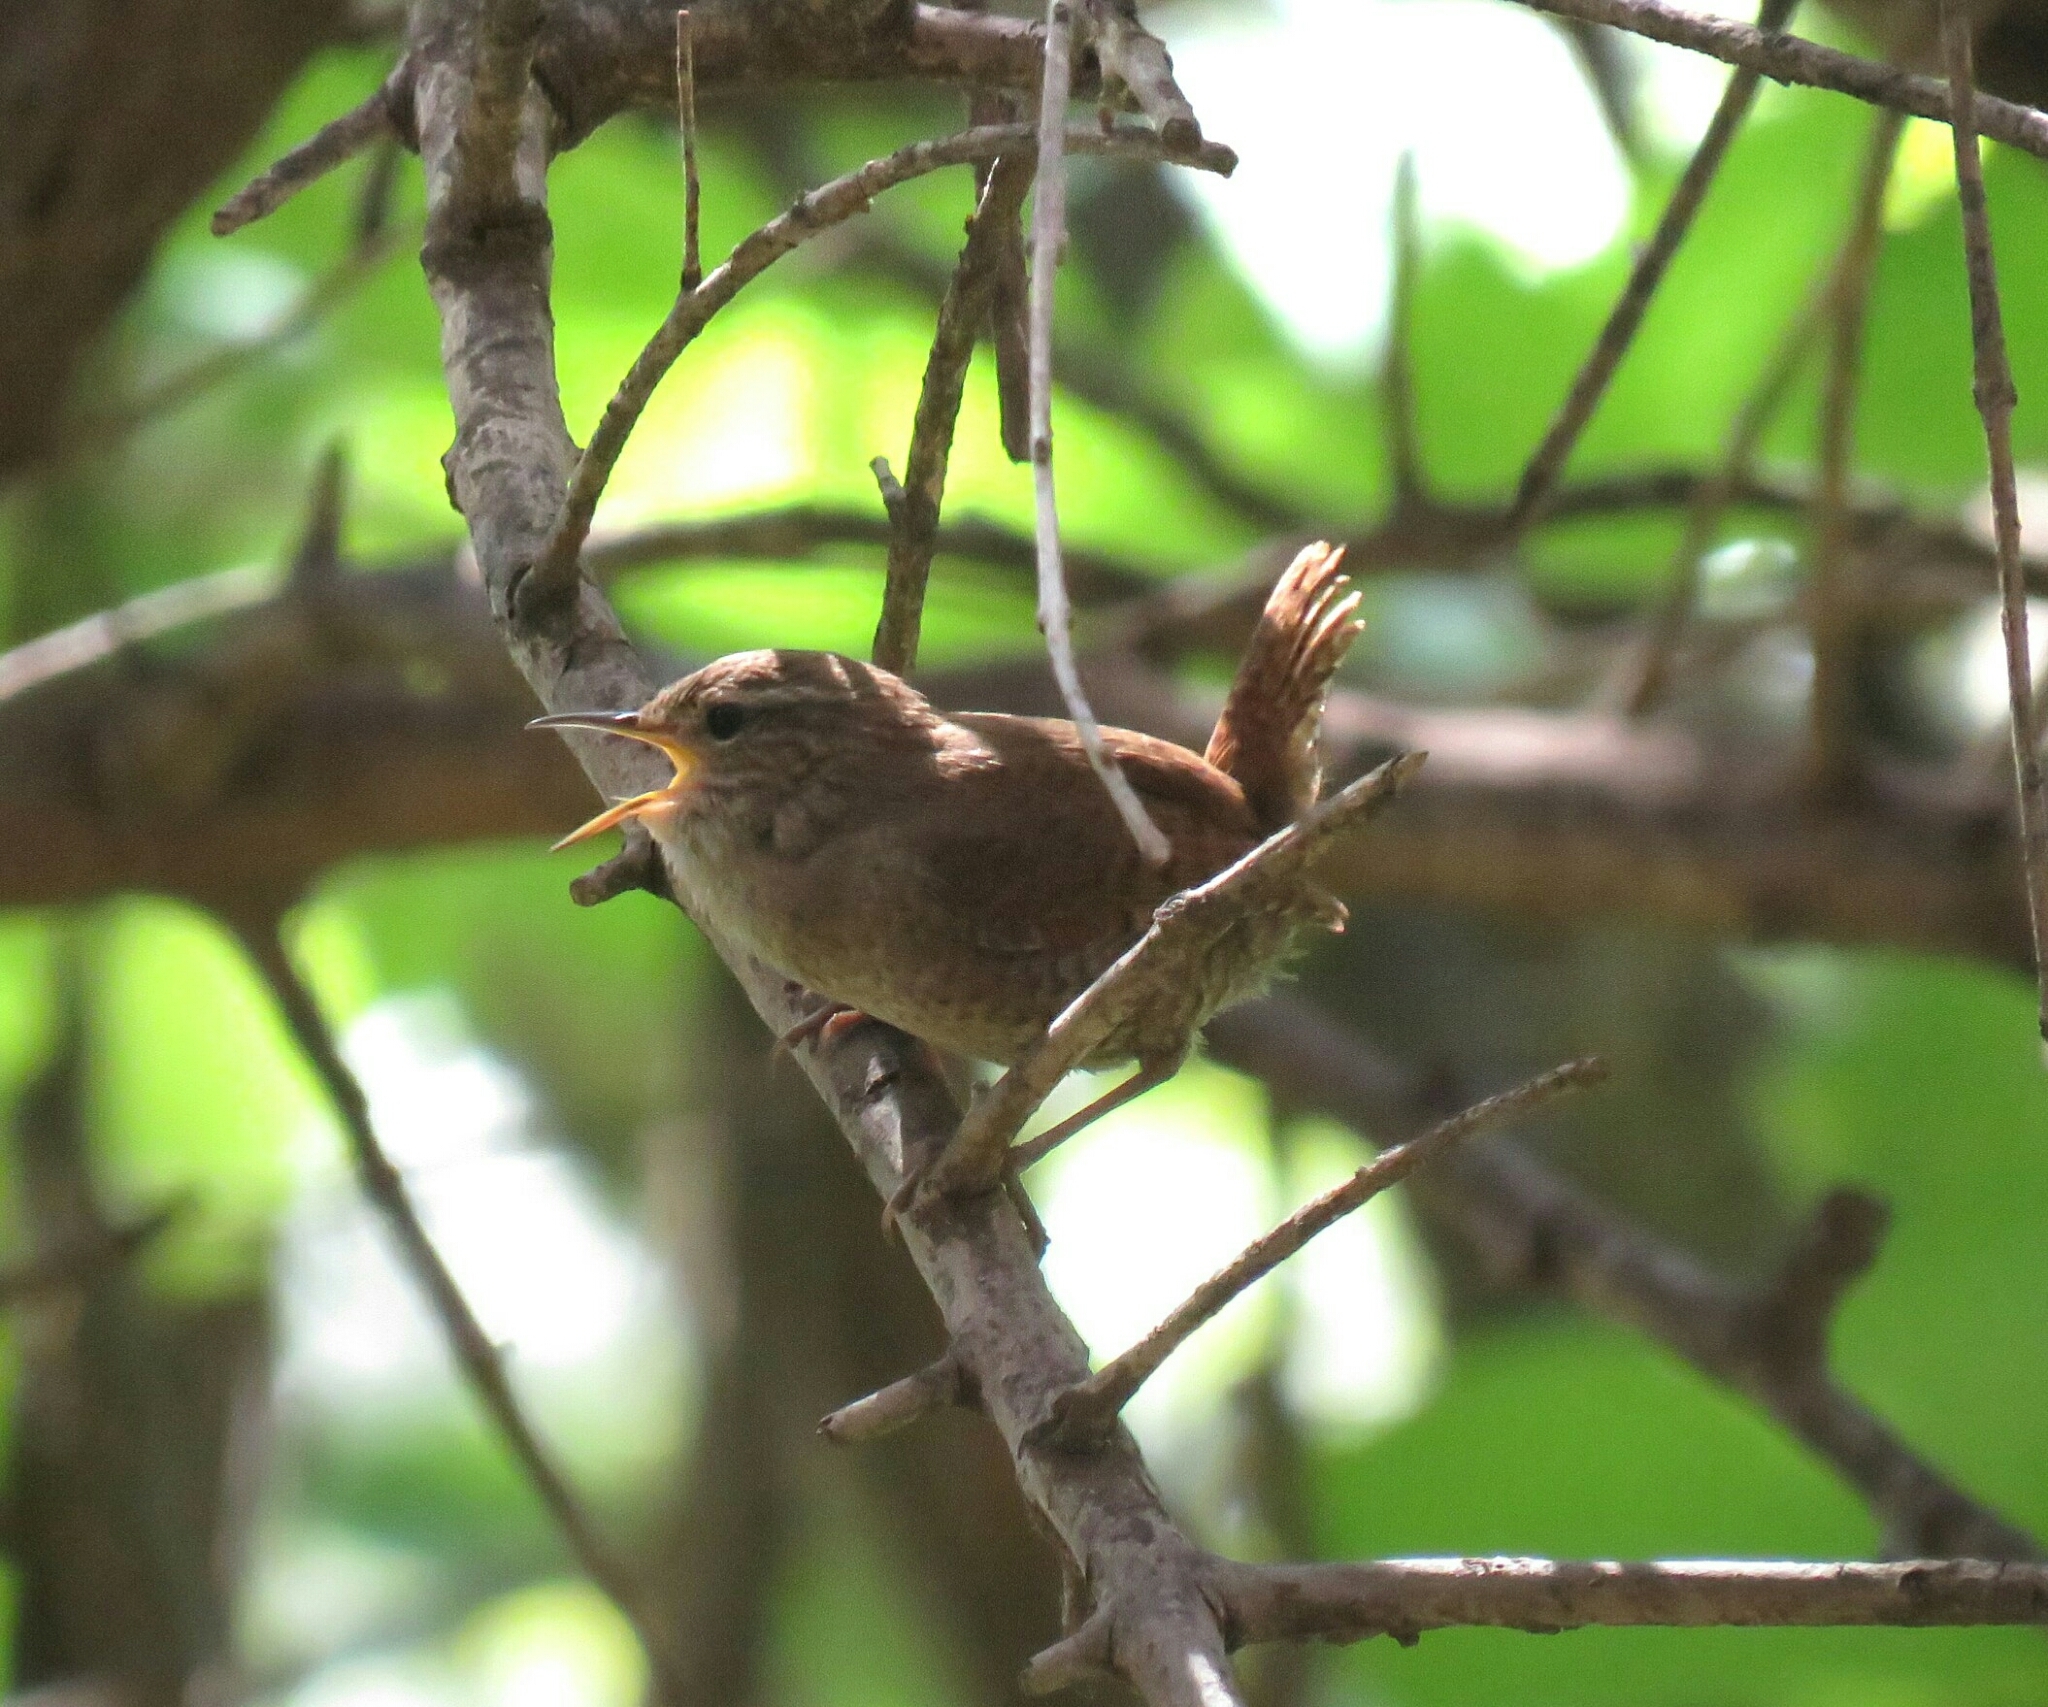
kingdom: Animalia
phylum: Chordata
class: Aves
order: Passeriformes
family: Troglodytidae
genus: Troglodytes
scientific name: Troglodytes troglodytes
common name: Eurasian wren
